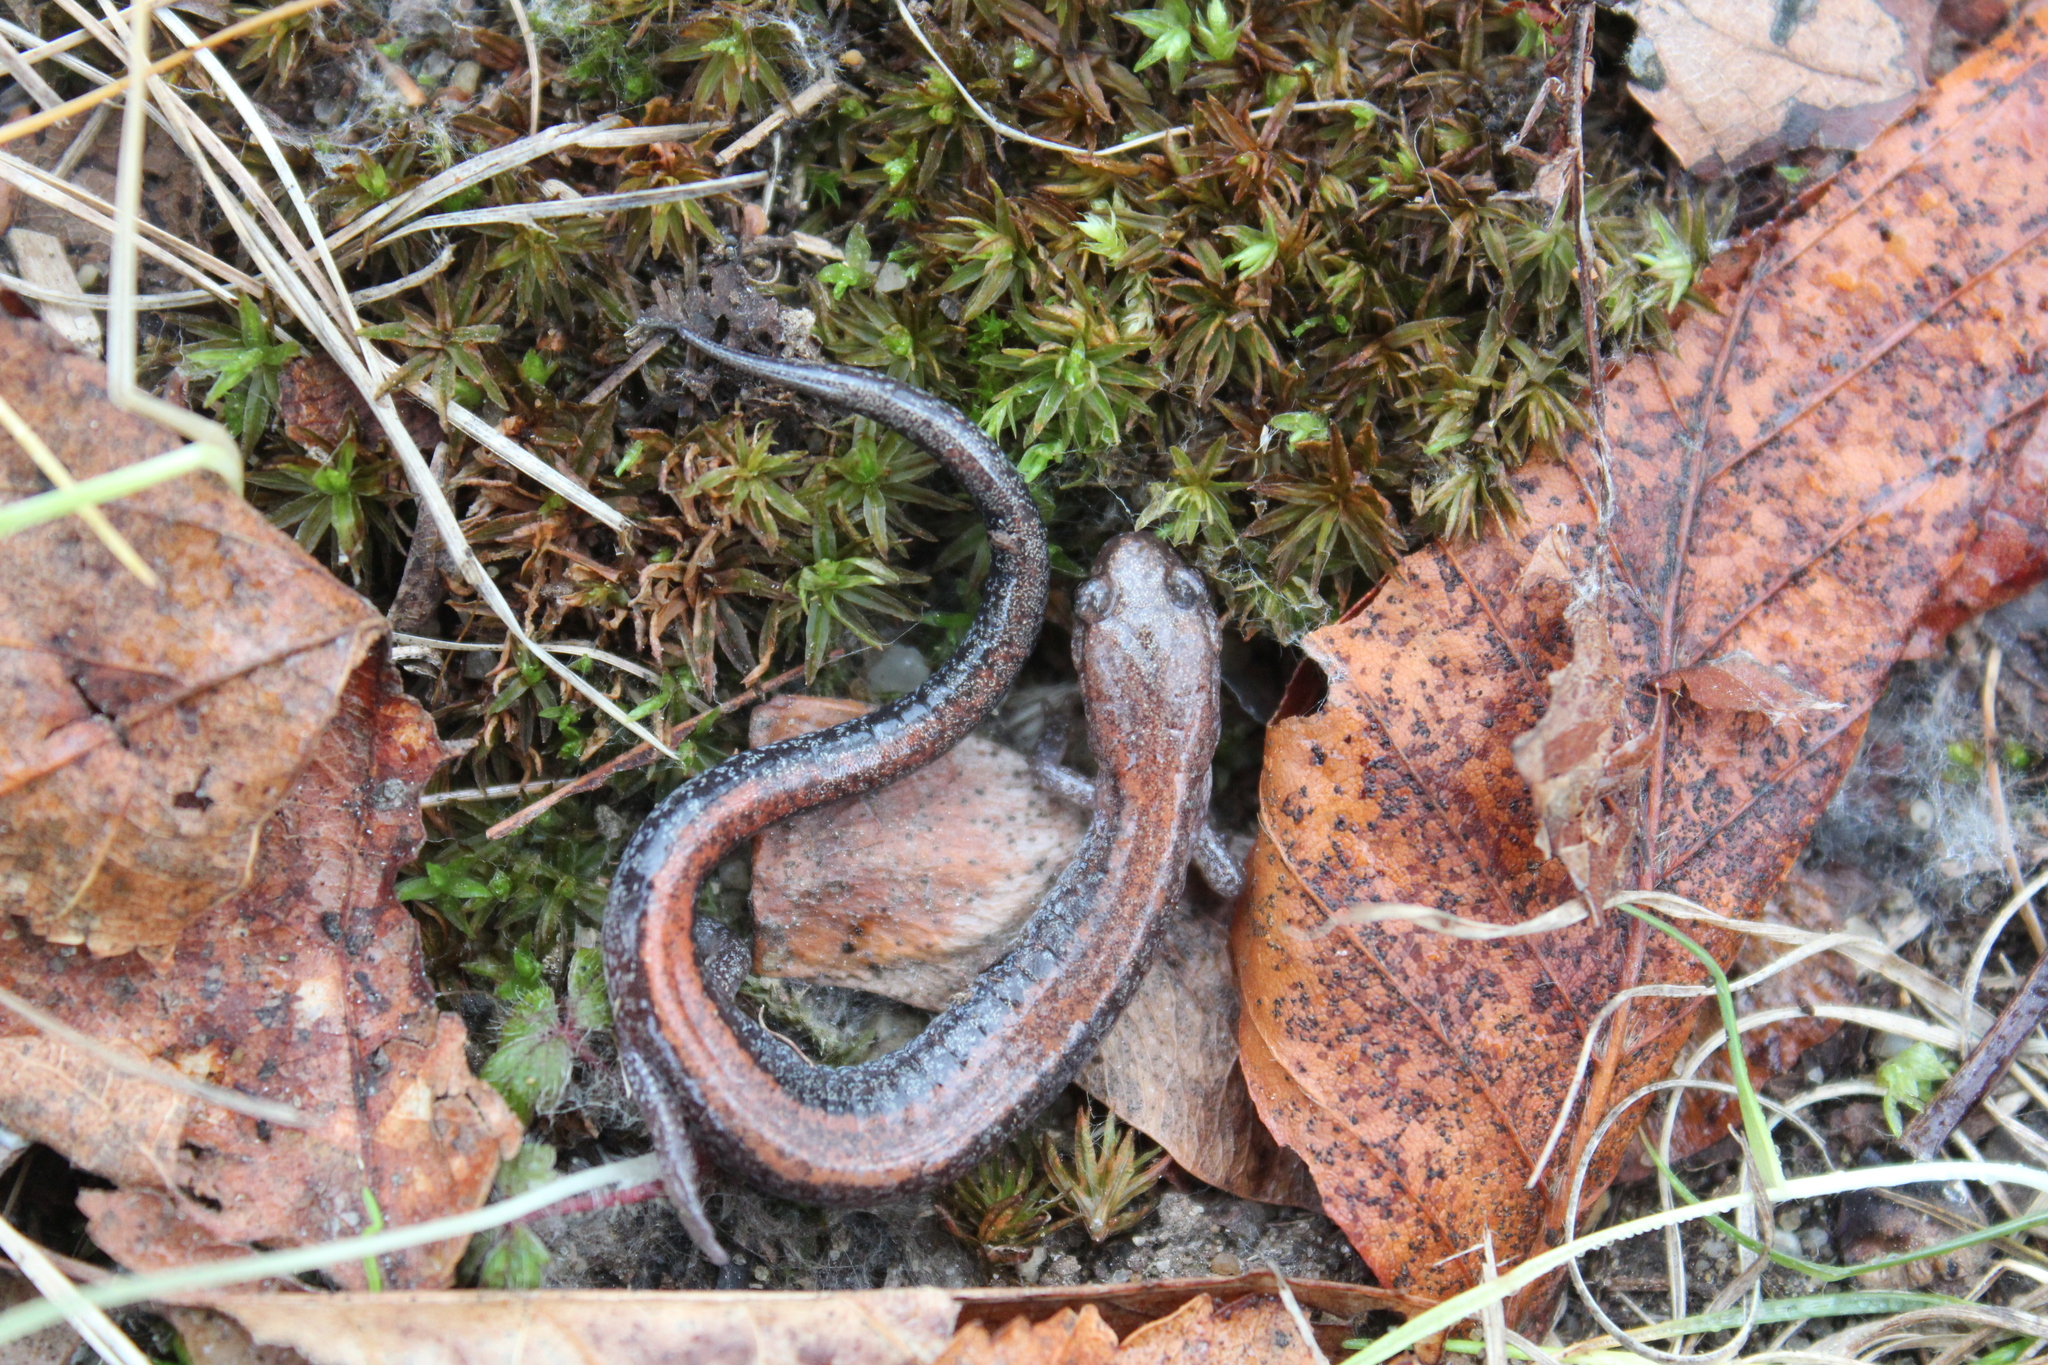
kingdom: Animalia
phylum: Chordata
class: Amphibia
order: Caudata
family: Plethodontidae
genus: Plethodon
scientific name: Plethodon cinereus
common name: Redback salamander
